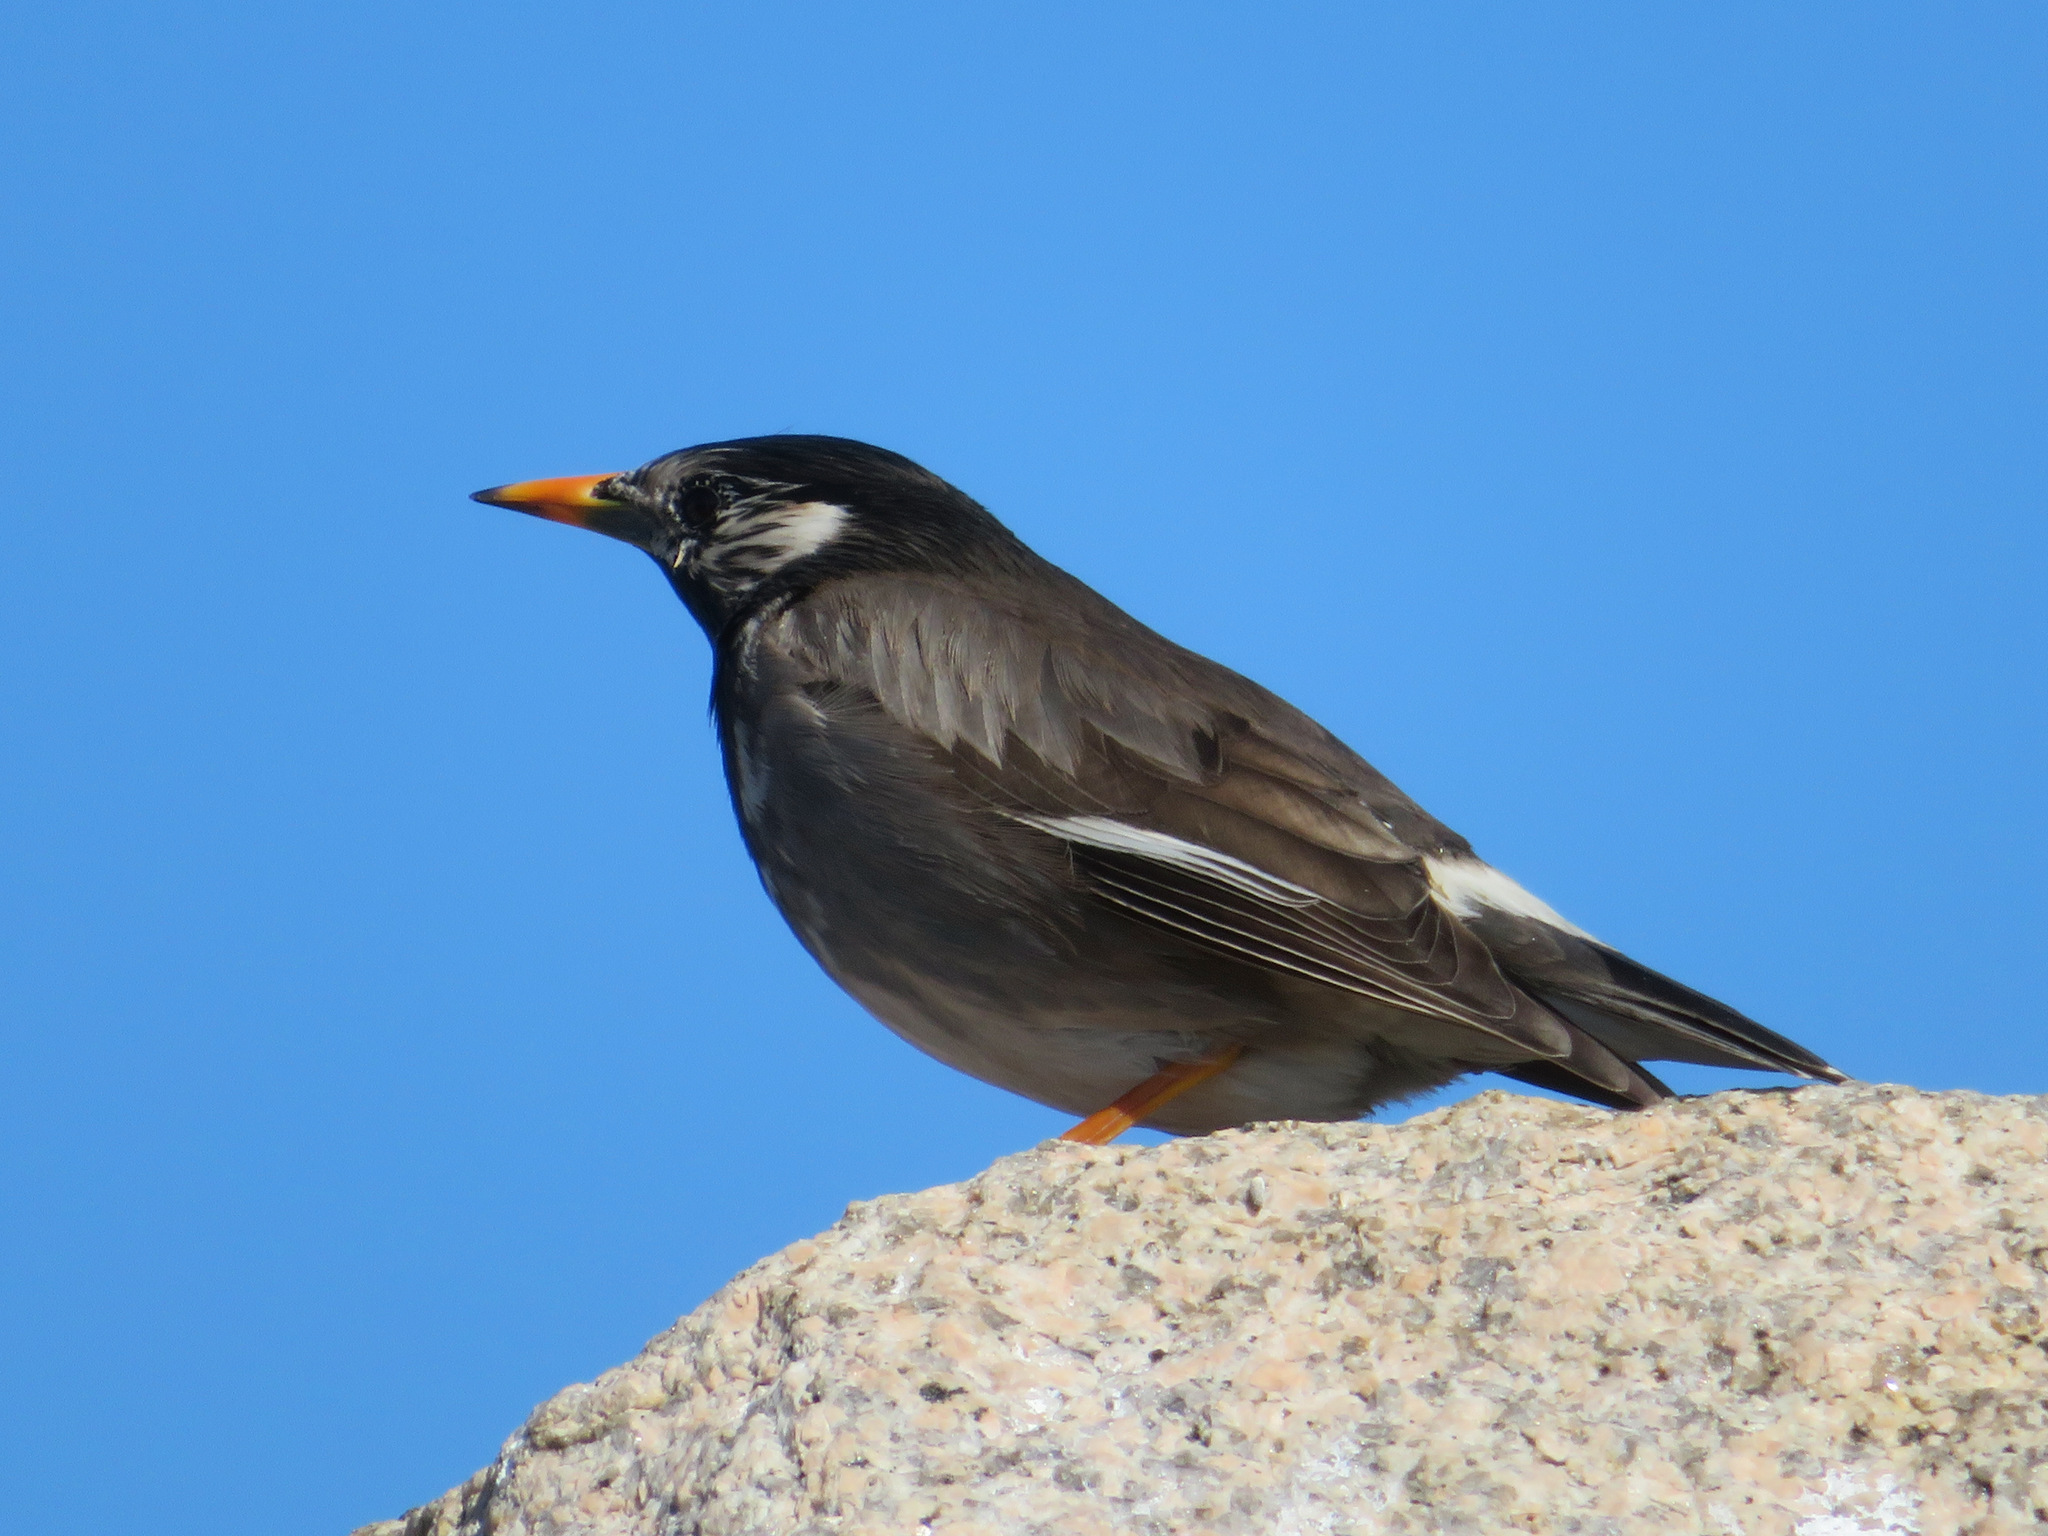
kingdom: Animalia
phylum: Chordata
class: Aves
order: Passeriformes
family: Sturnidae
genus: Spodiopsar
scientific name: Spodiopsar cineraceus
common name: White-cheeked starling
